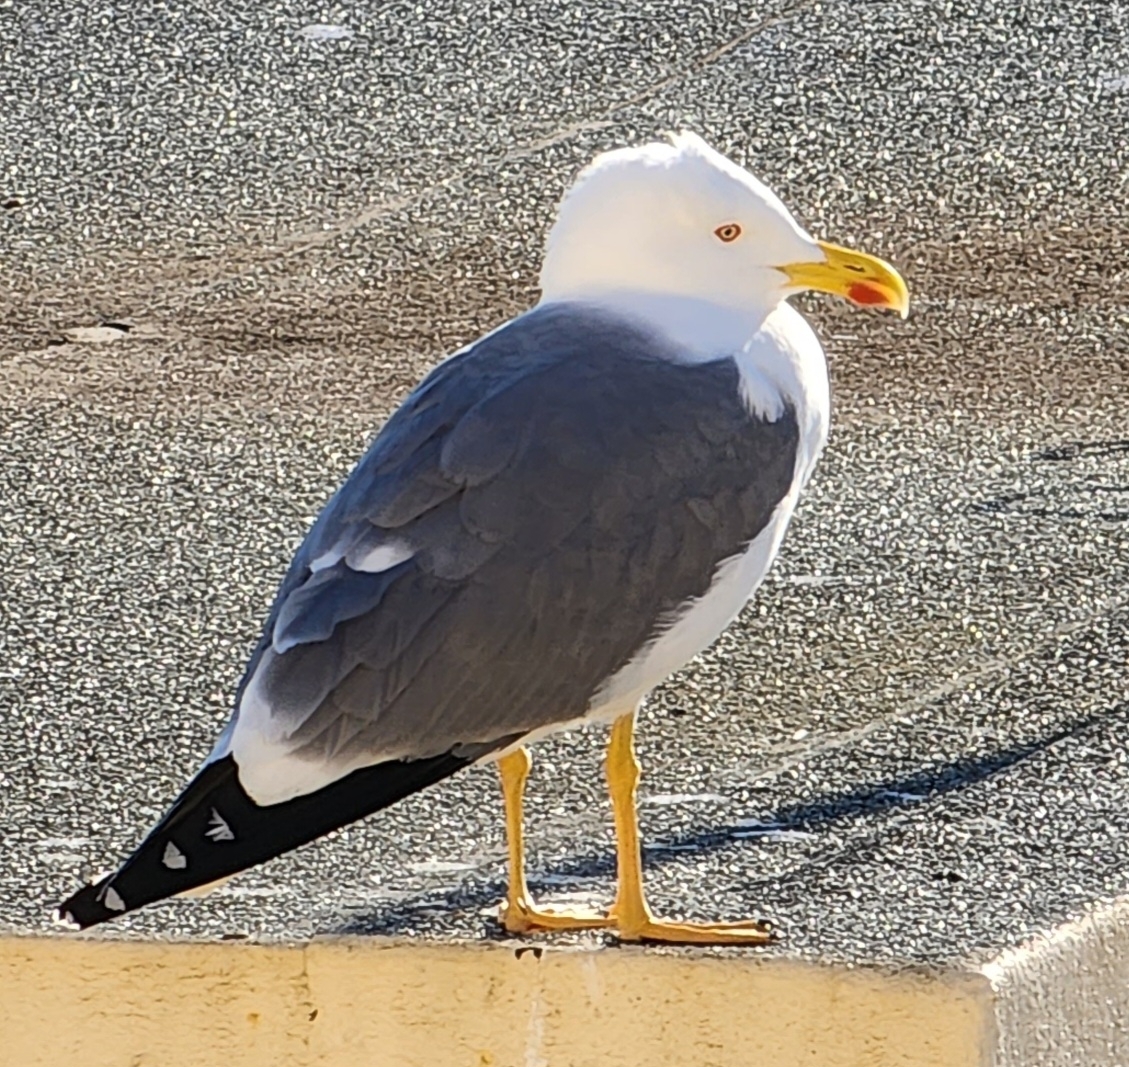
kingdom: Animalia
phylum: Chordata
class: Aves
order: Charadriiformes
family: Laridae
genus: Larus
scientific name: Larus fuscus
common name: Lesser black-backed gull
